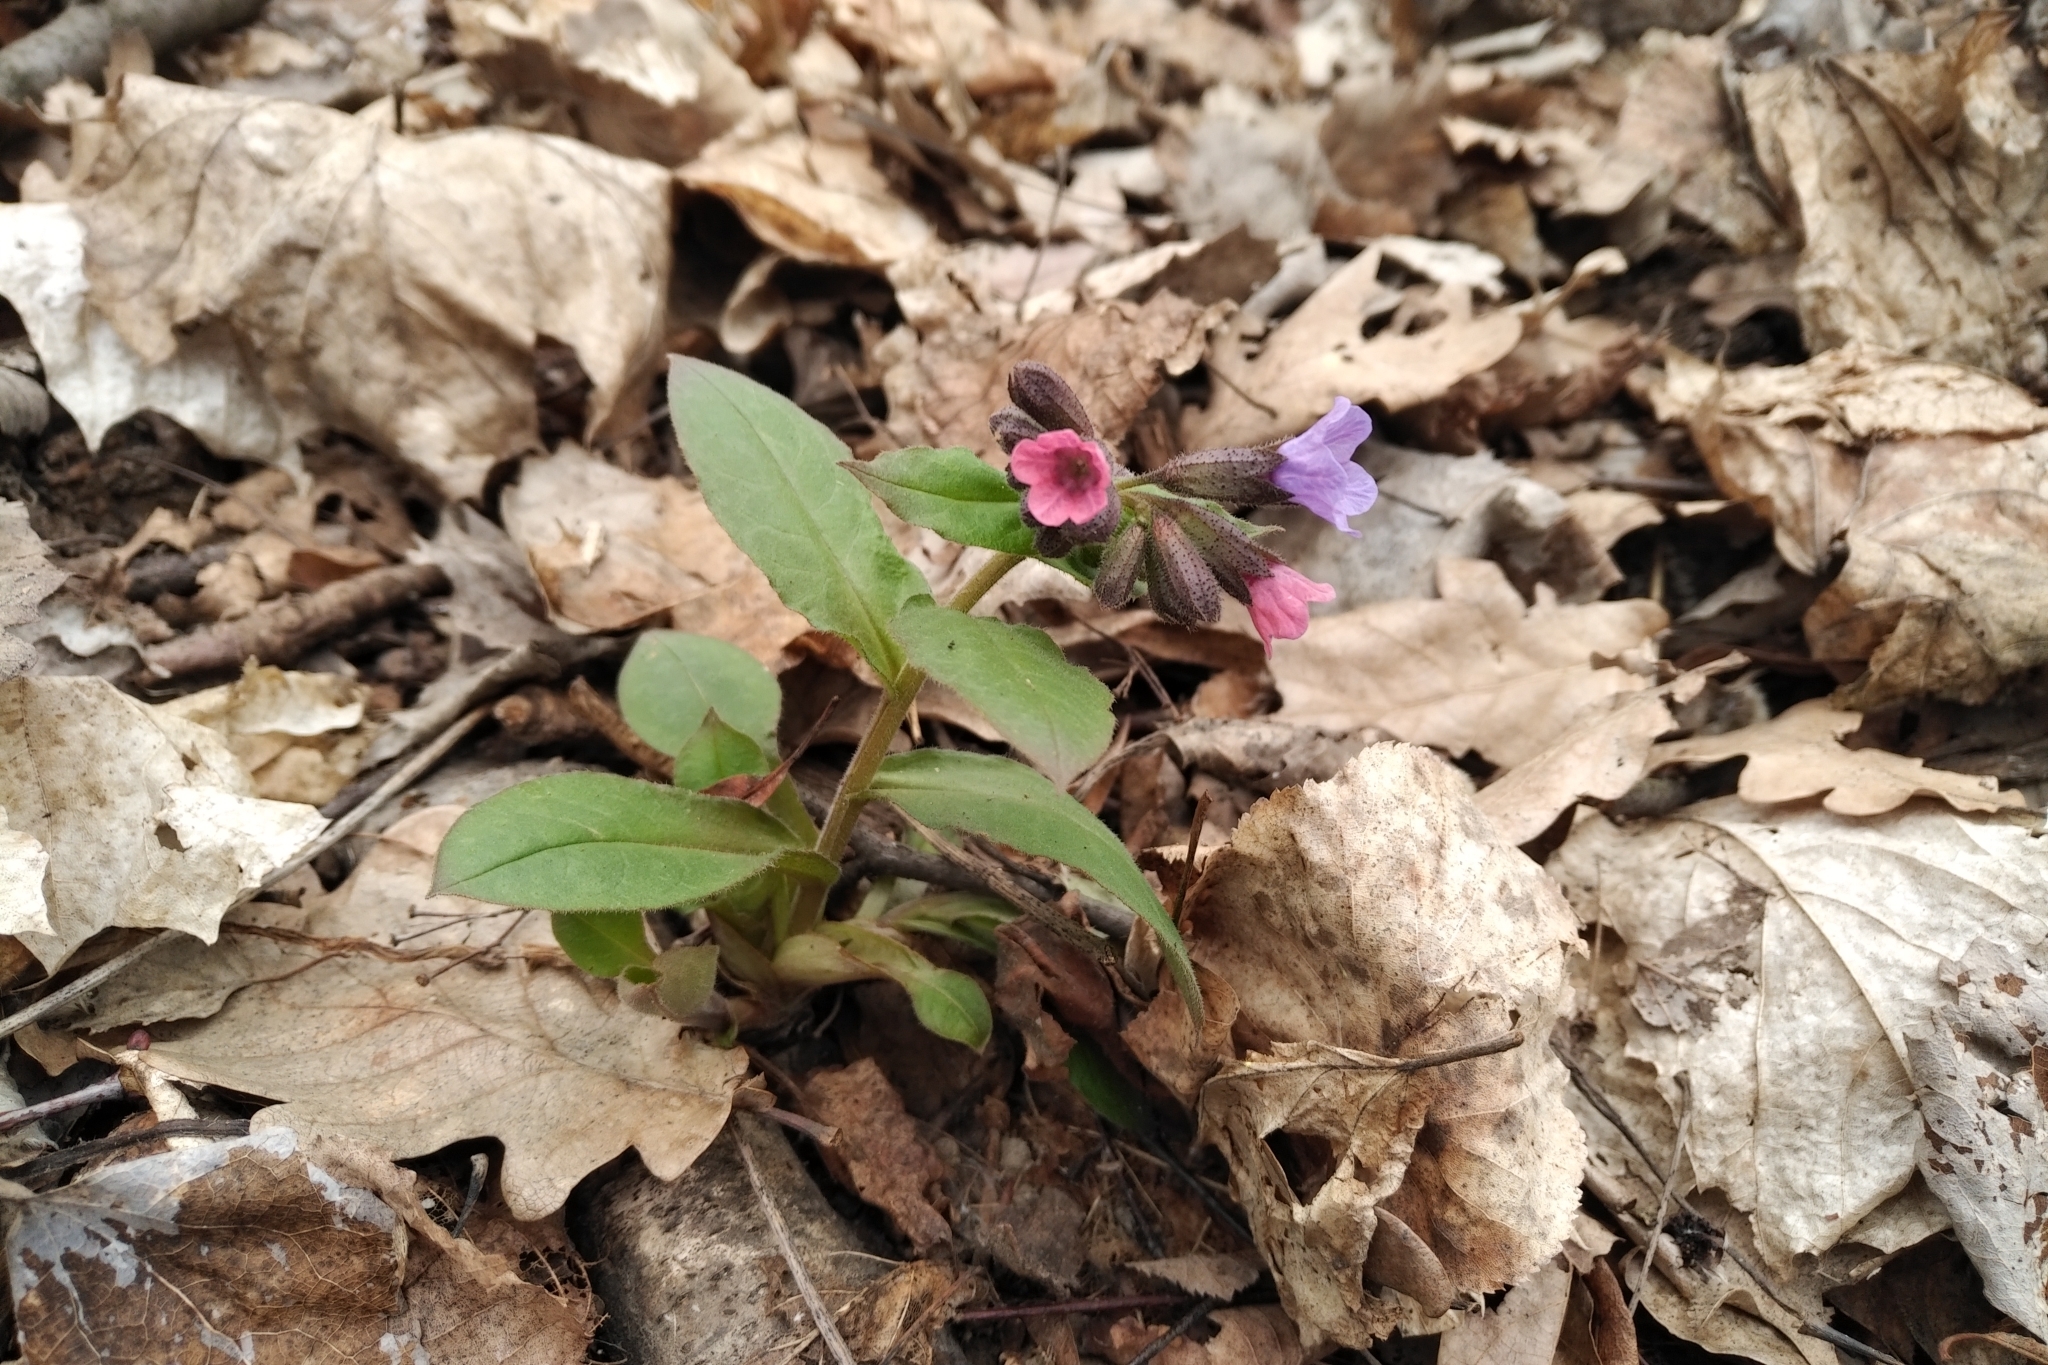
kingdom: Plantae
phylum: Tracheophyta
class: Magnoliopsida
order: Boraginales
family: Boraginaceae
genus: Pulmonaria
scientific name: Pulmonaria obscura
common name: Suffolk lungwort
